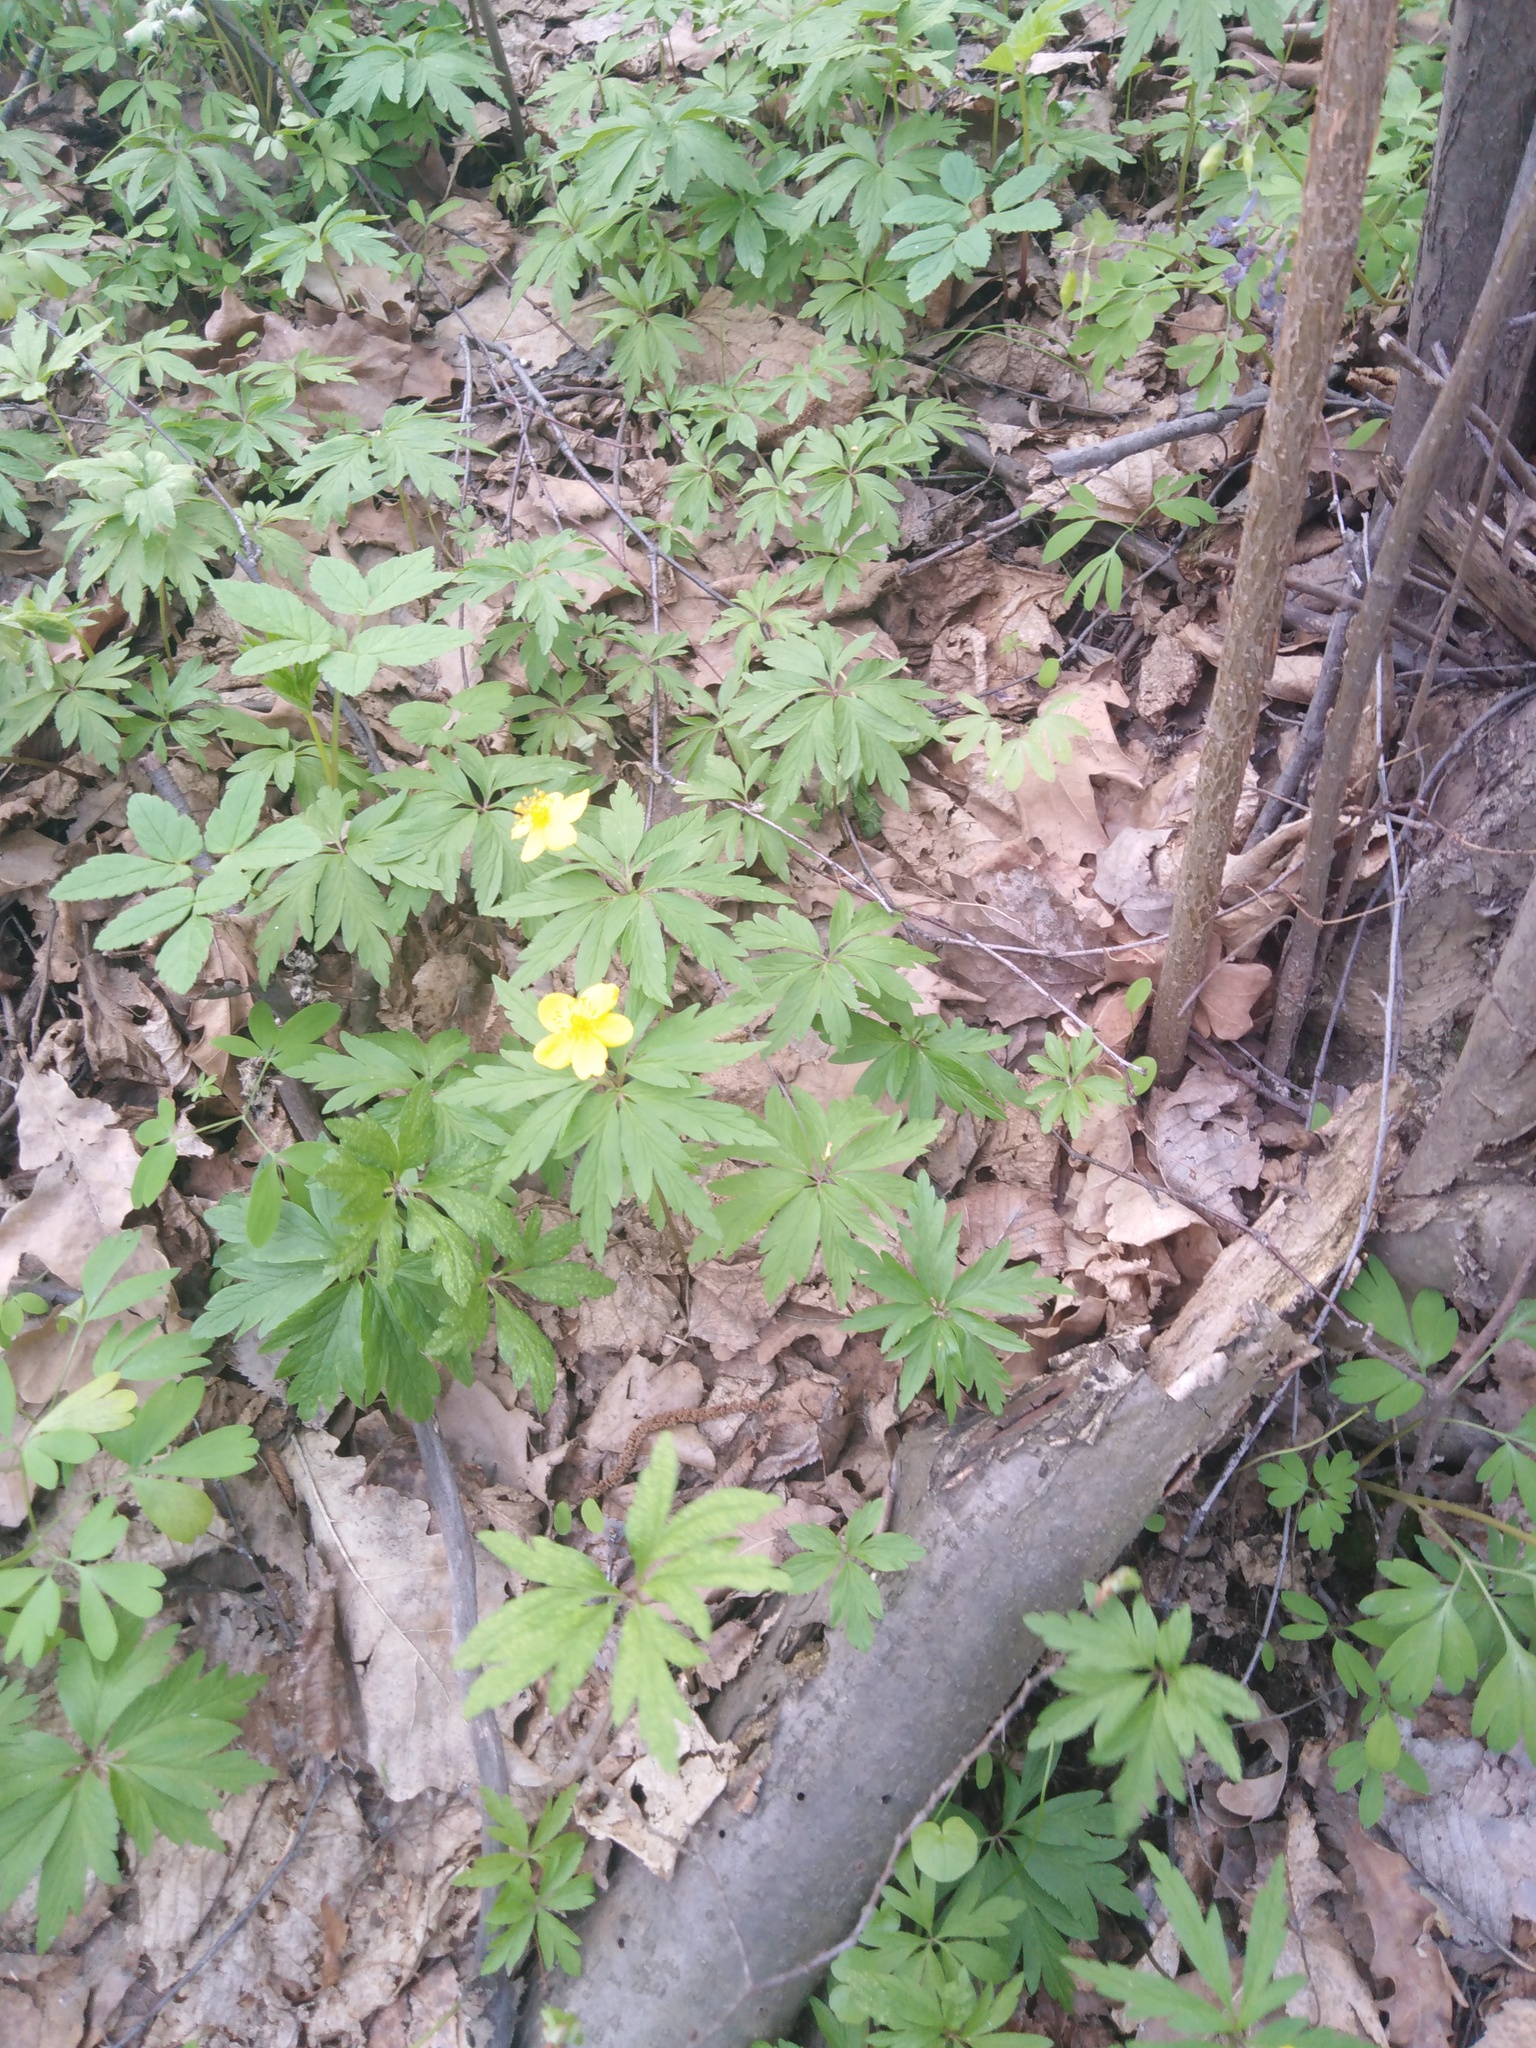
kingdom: Plantae
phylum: Tracheophyta
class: Magnoliopsida
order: Ranunculales
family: Ranunculaceae
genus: Anemone
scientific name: Anemone ranunculoides
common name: Yellow anemone
